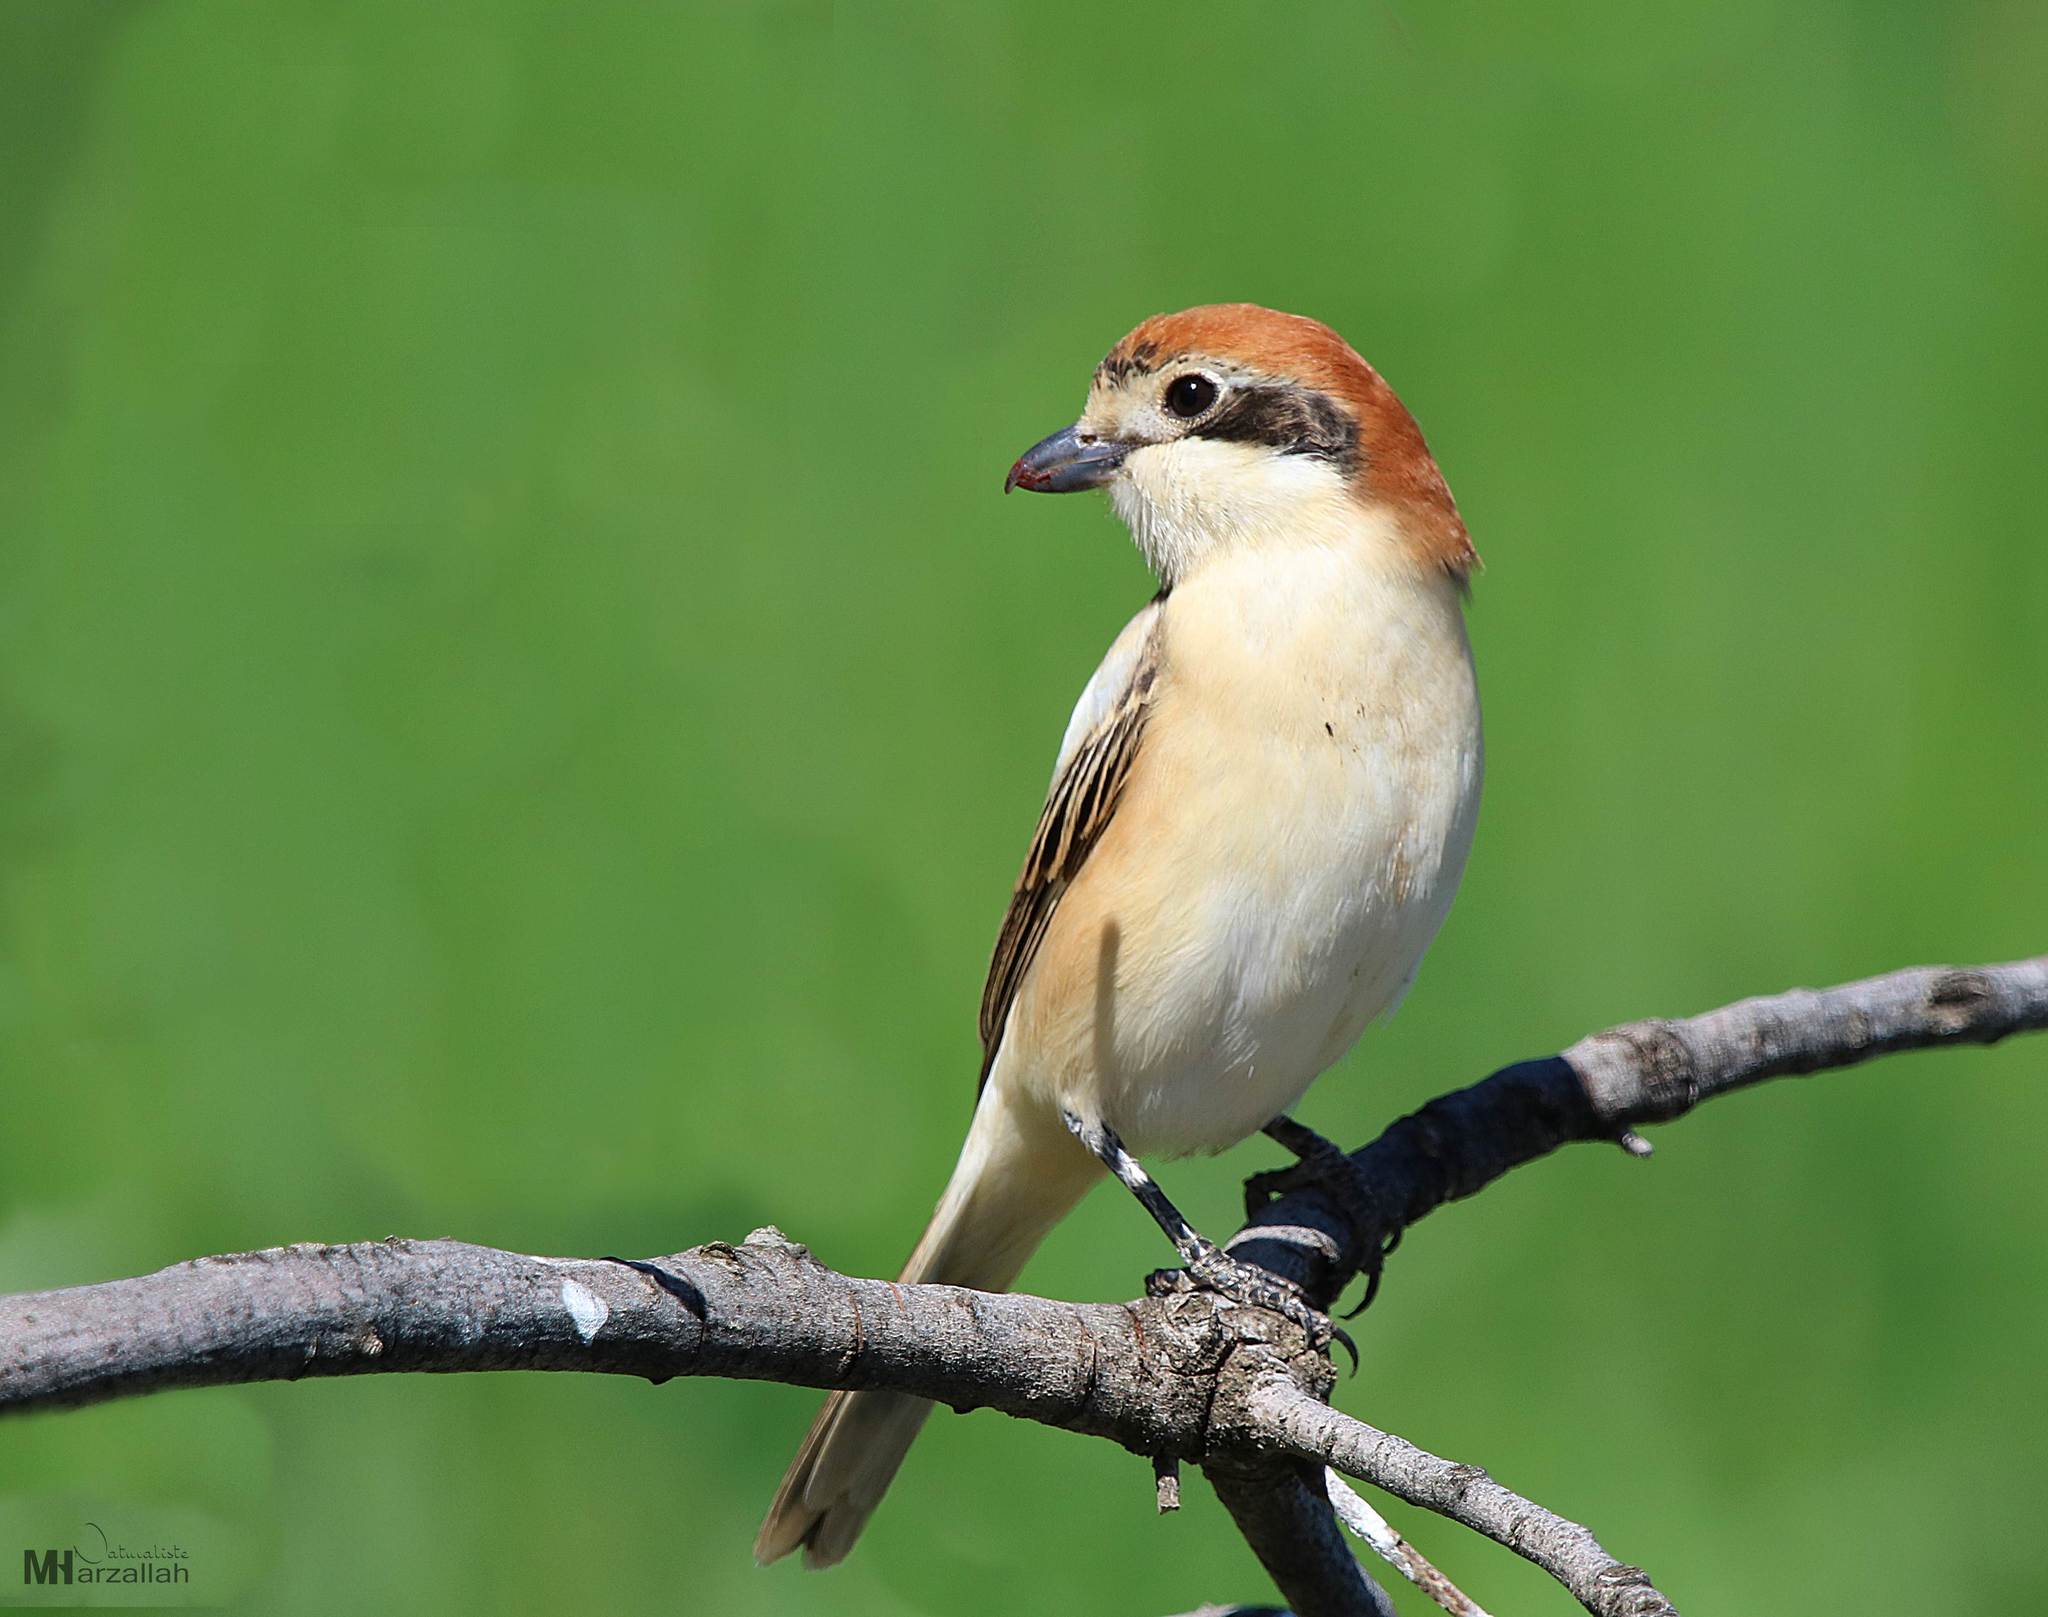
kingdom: Animalia
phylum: Chordata
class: Aves
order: Passeriformes
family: Laniidae
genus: Lanius
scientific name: Lanius senator
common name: Woodchat shrike
